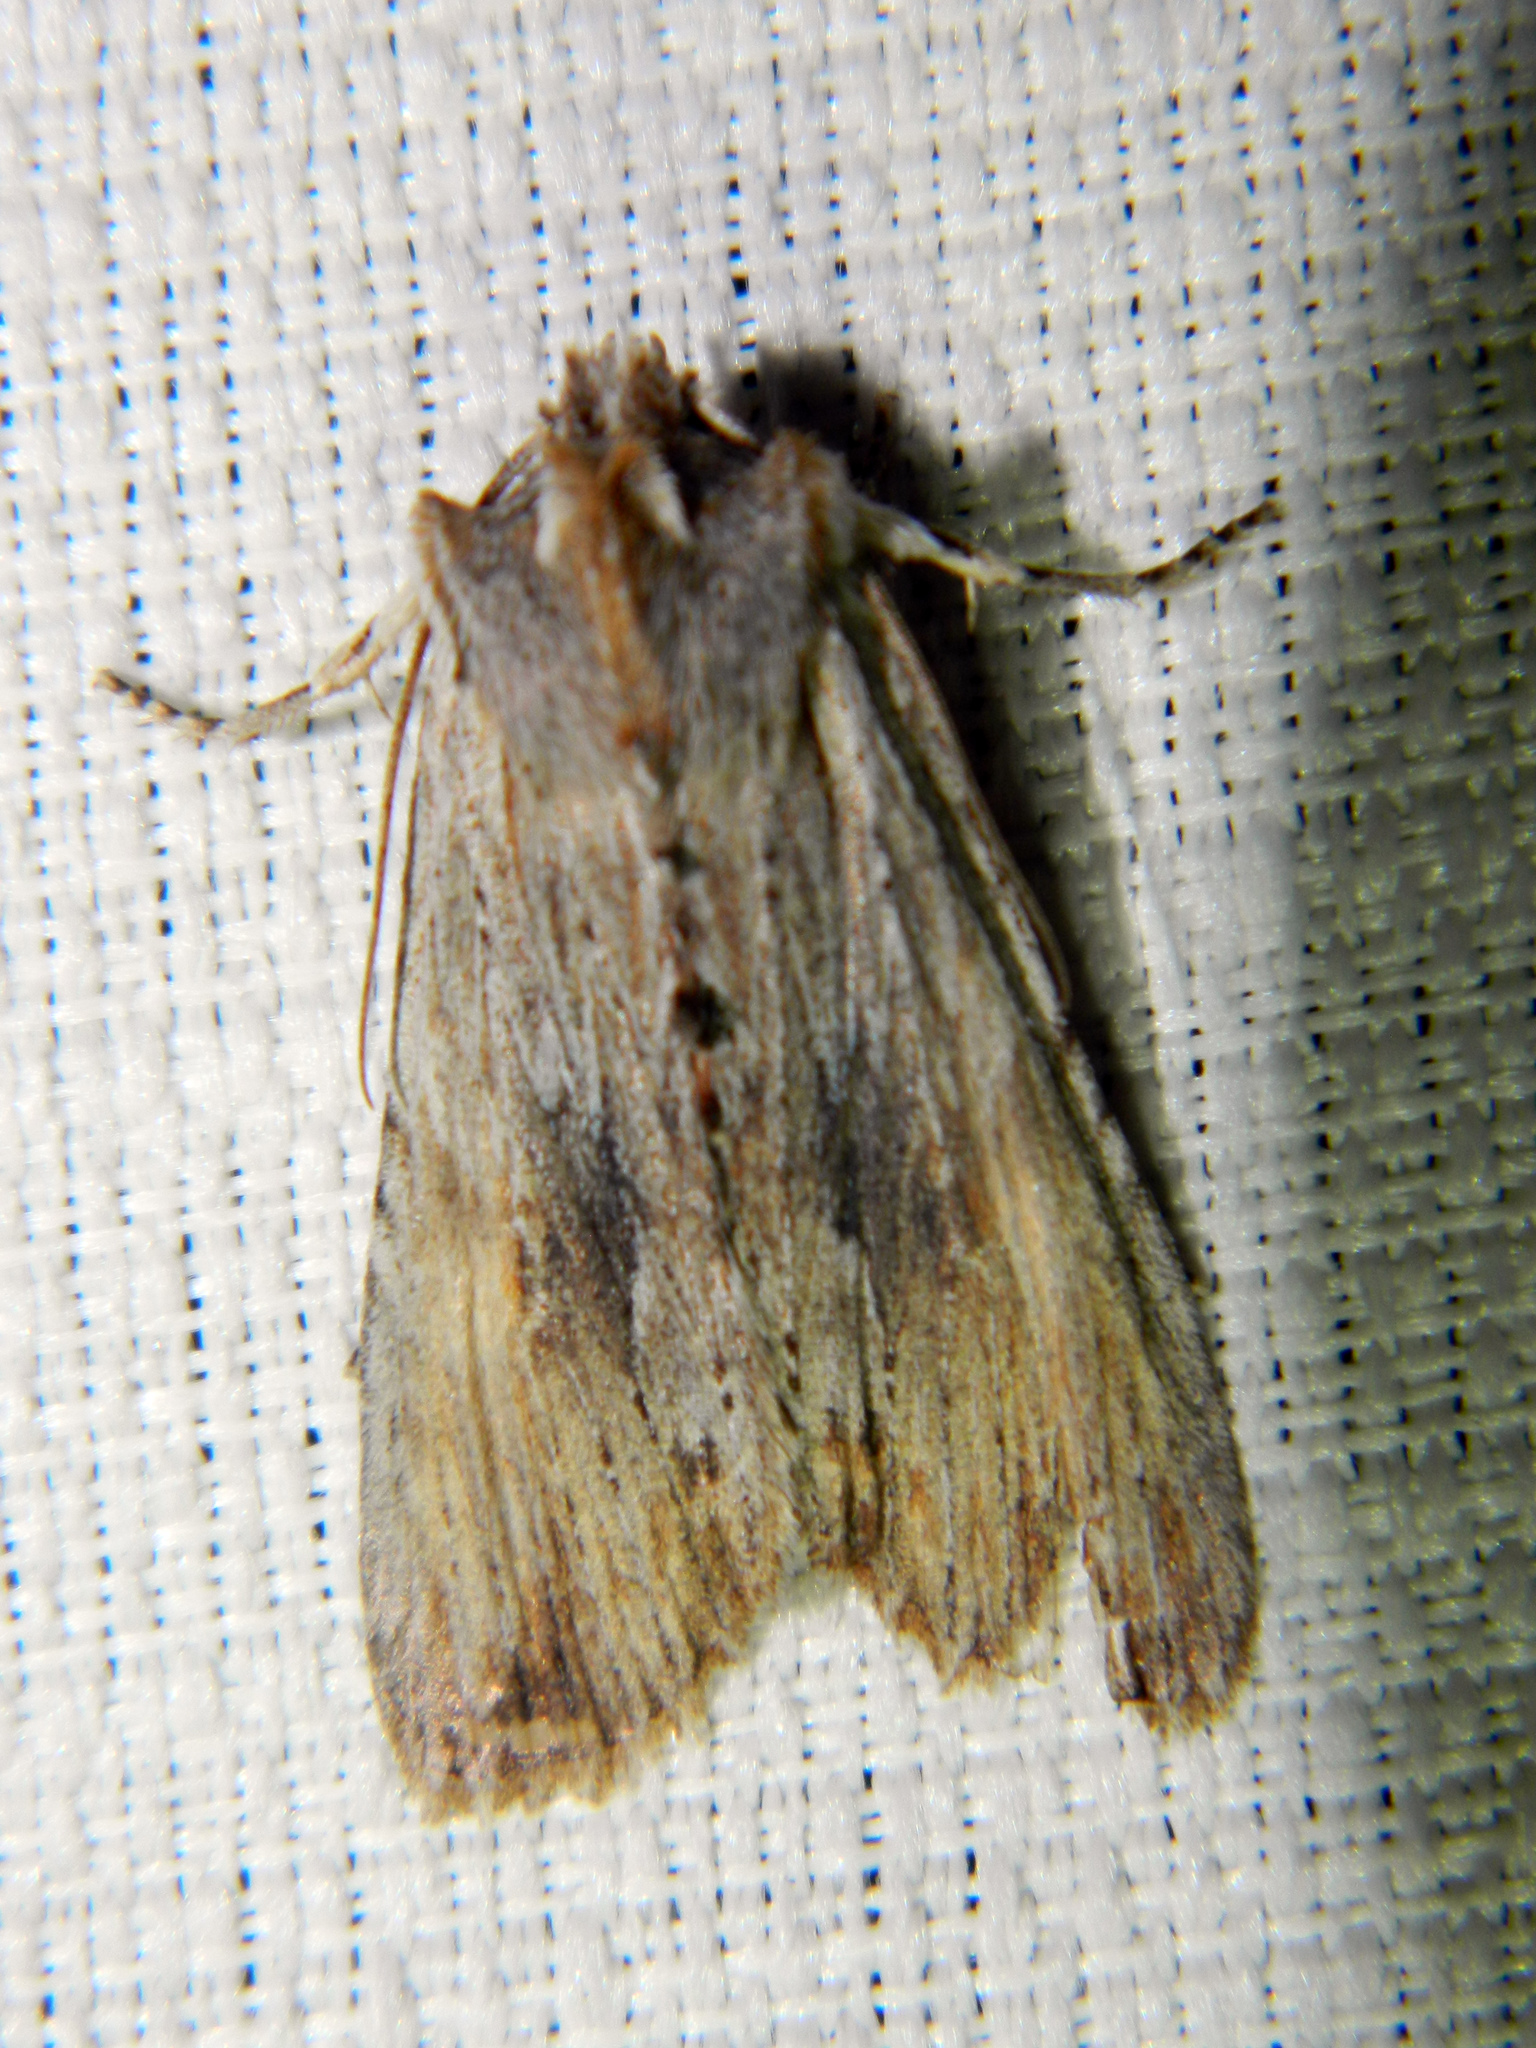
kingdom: Animalia
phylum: Arthropoda
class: Insecta
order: Lepidoptera
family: Noctuidae
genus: Lithophane
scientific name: Lithophane amanda
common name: Amanda's pinion moth
